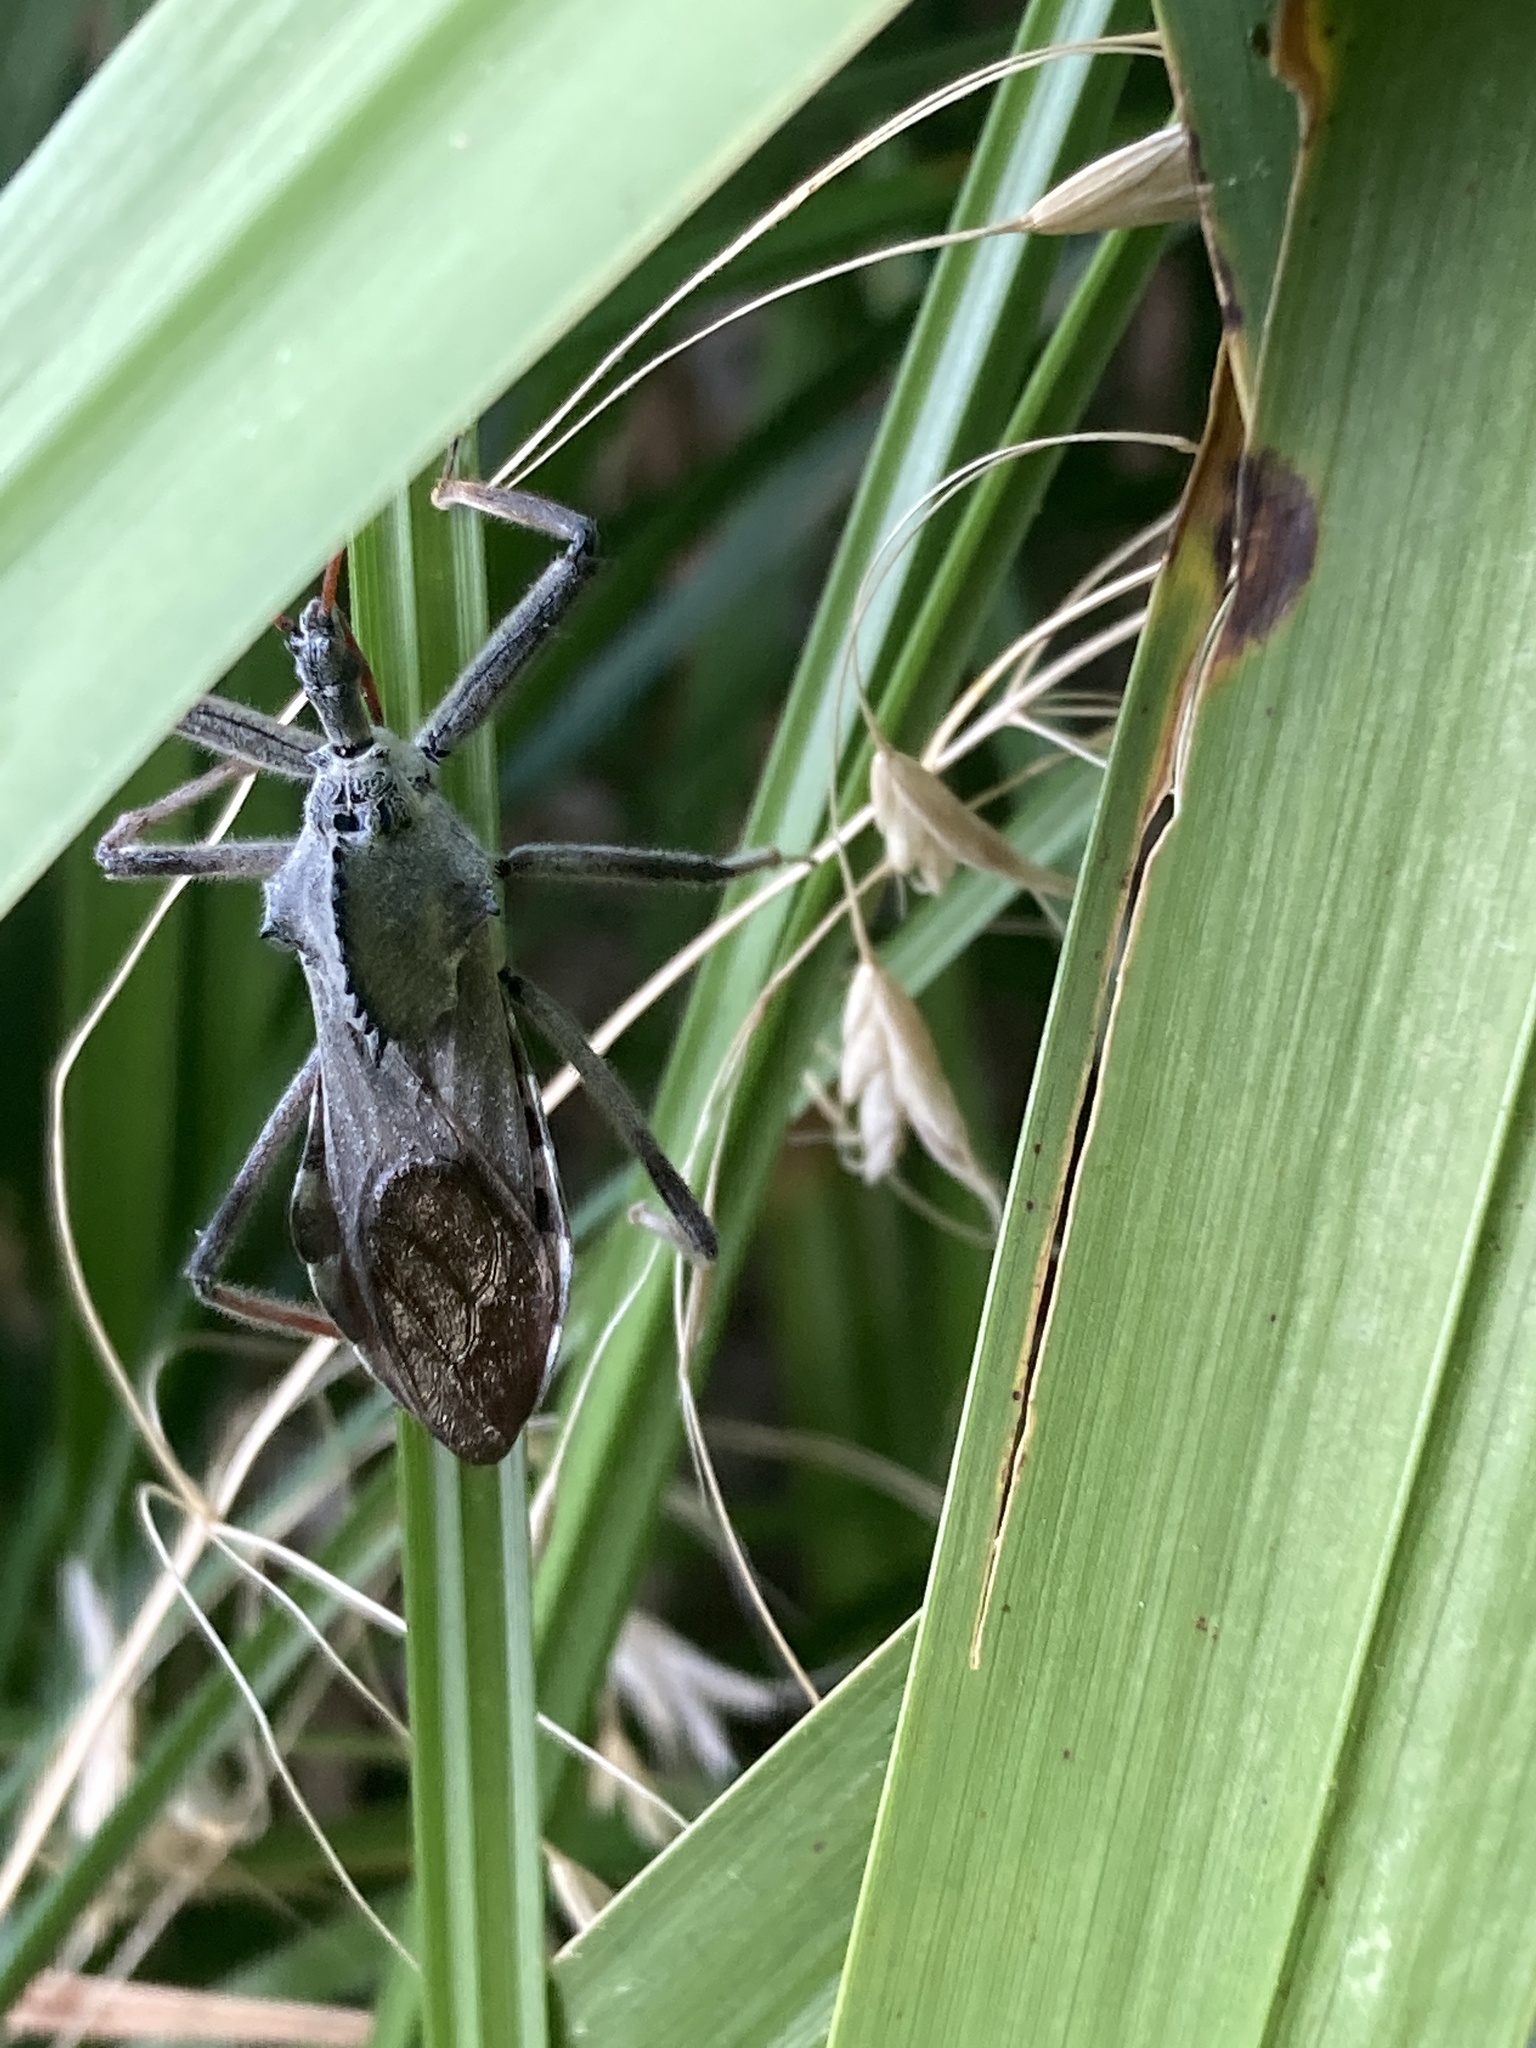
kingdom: Animalia
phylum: Arthropoda
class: Insecta
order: Hemiptera
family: Reduviidae
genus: Arilus
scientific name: Arilus cristatus
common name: North american wheel bug
